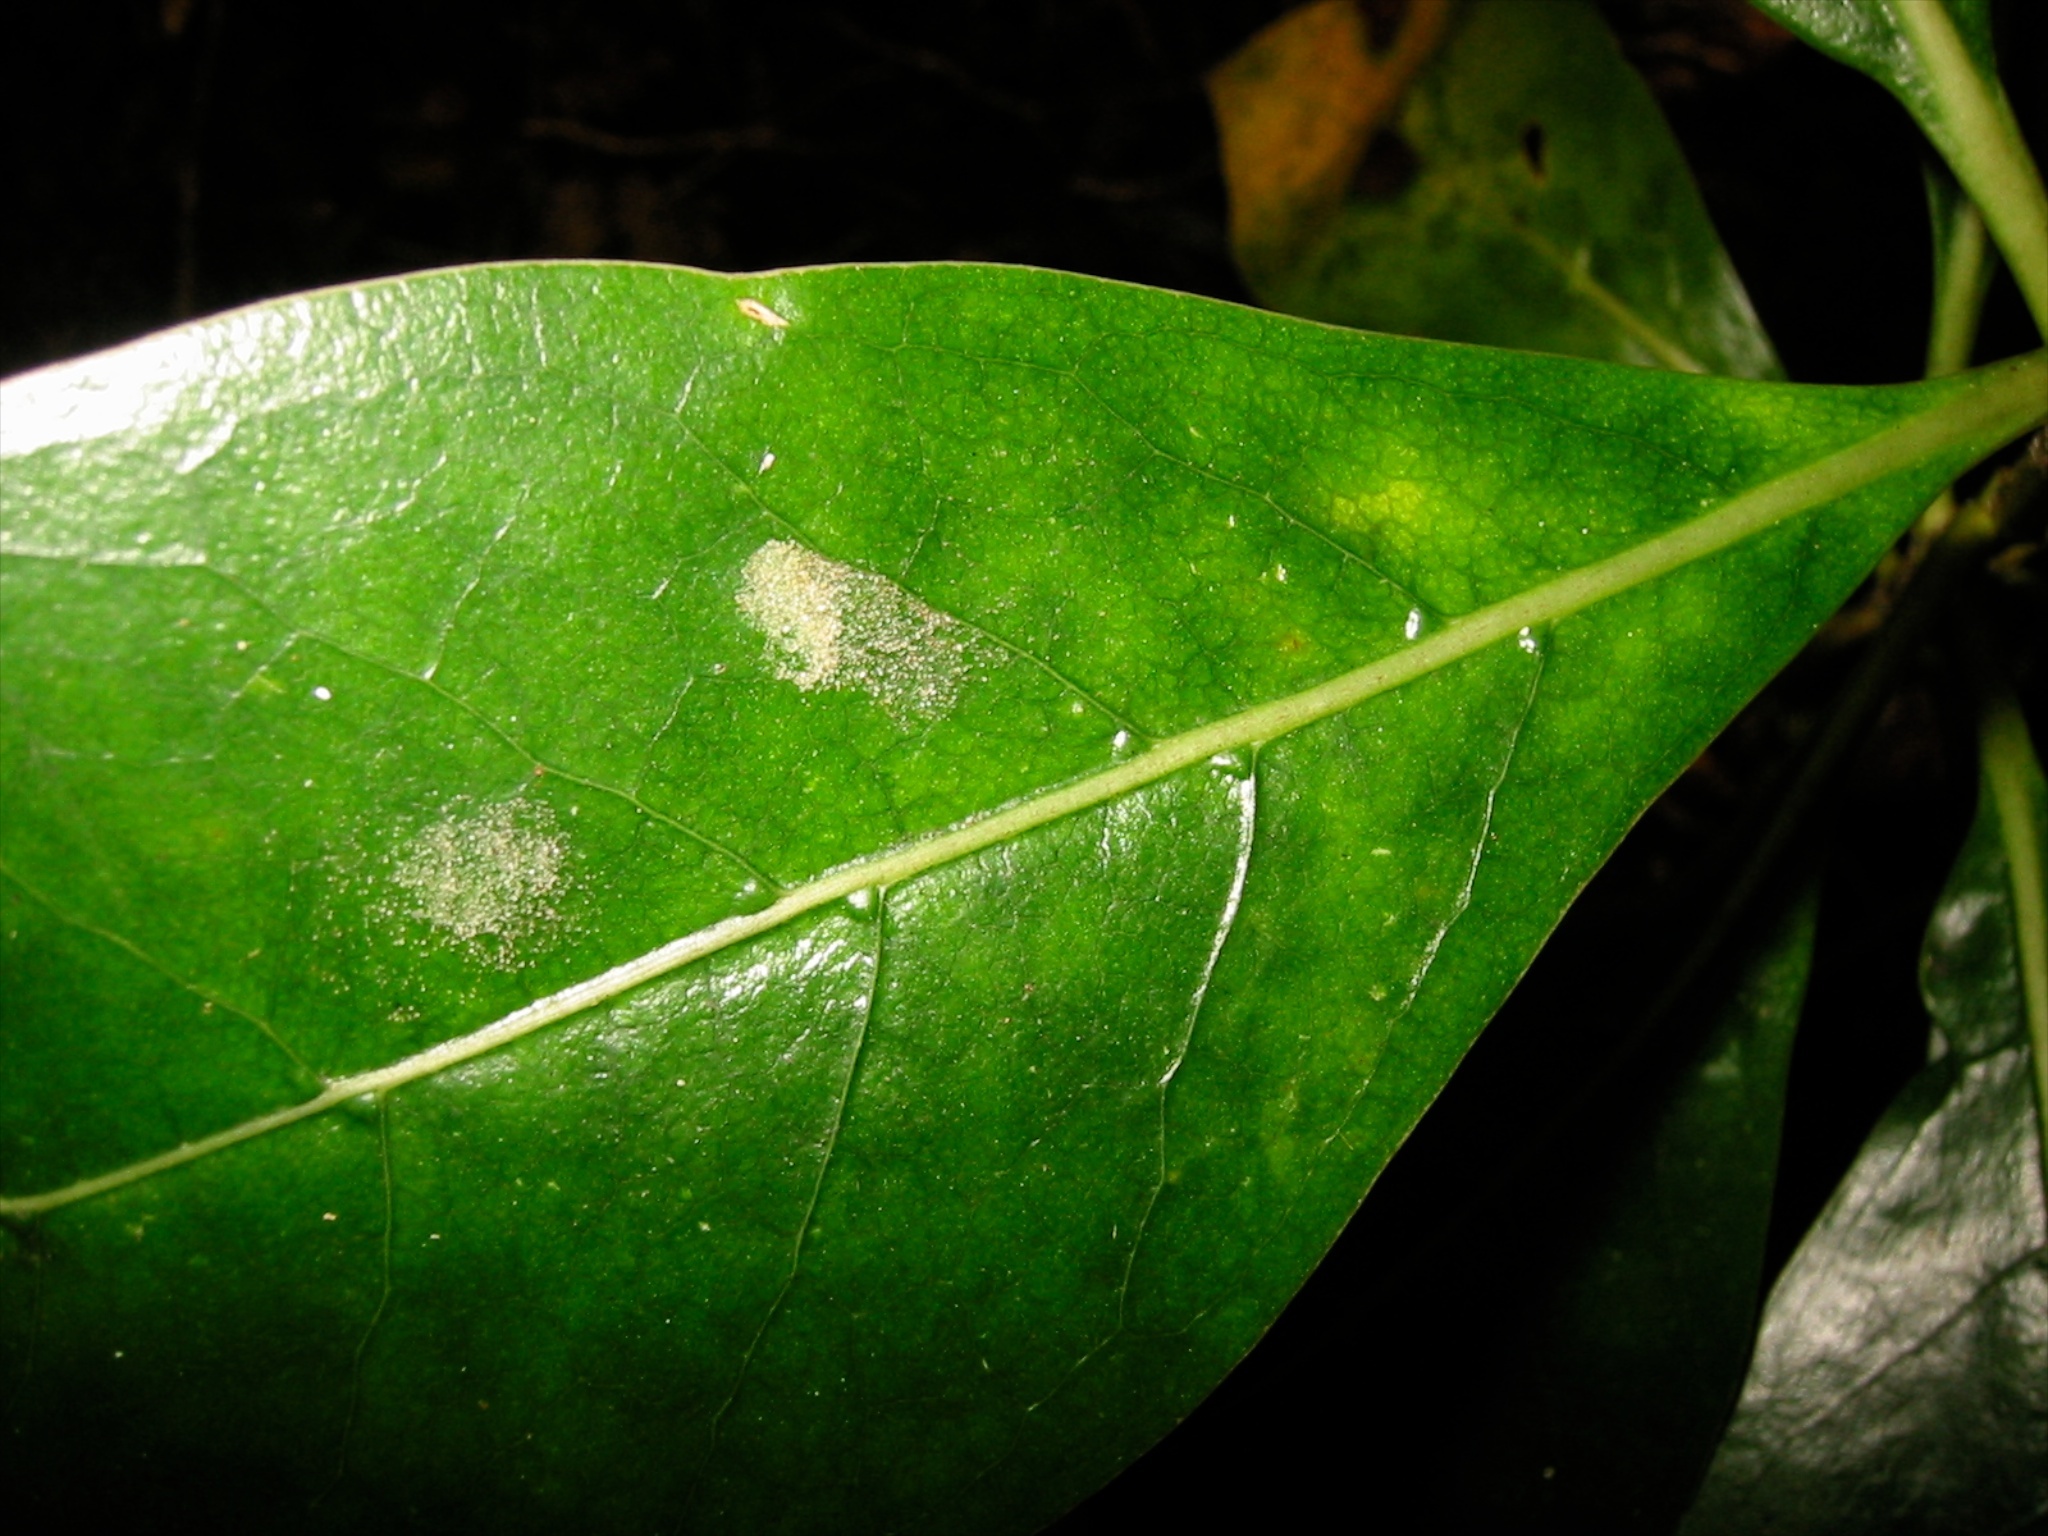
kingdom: Animalia
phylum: Arthropoda
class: Arachnida
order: Trombidiformes
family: Eriophyidae
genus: Phyllocoptes
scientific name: Phyllocoptes coprosmae
